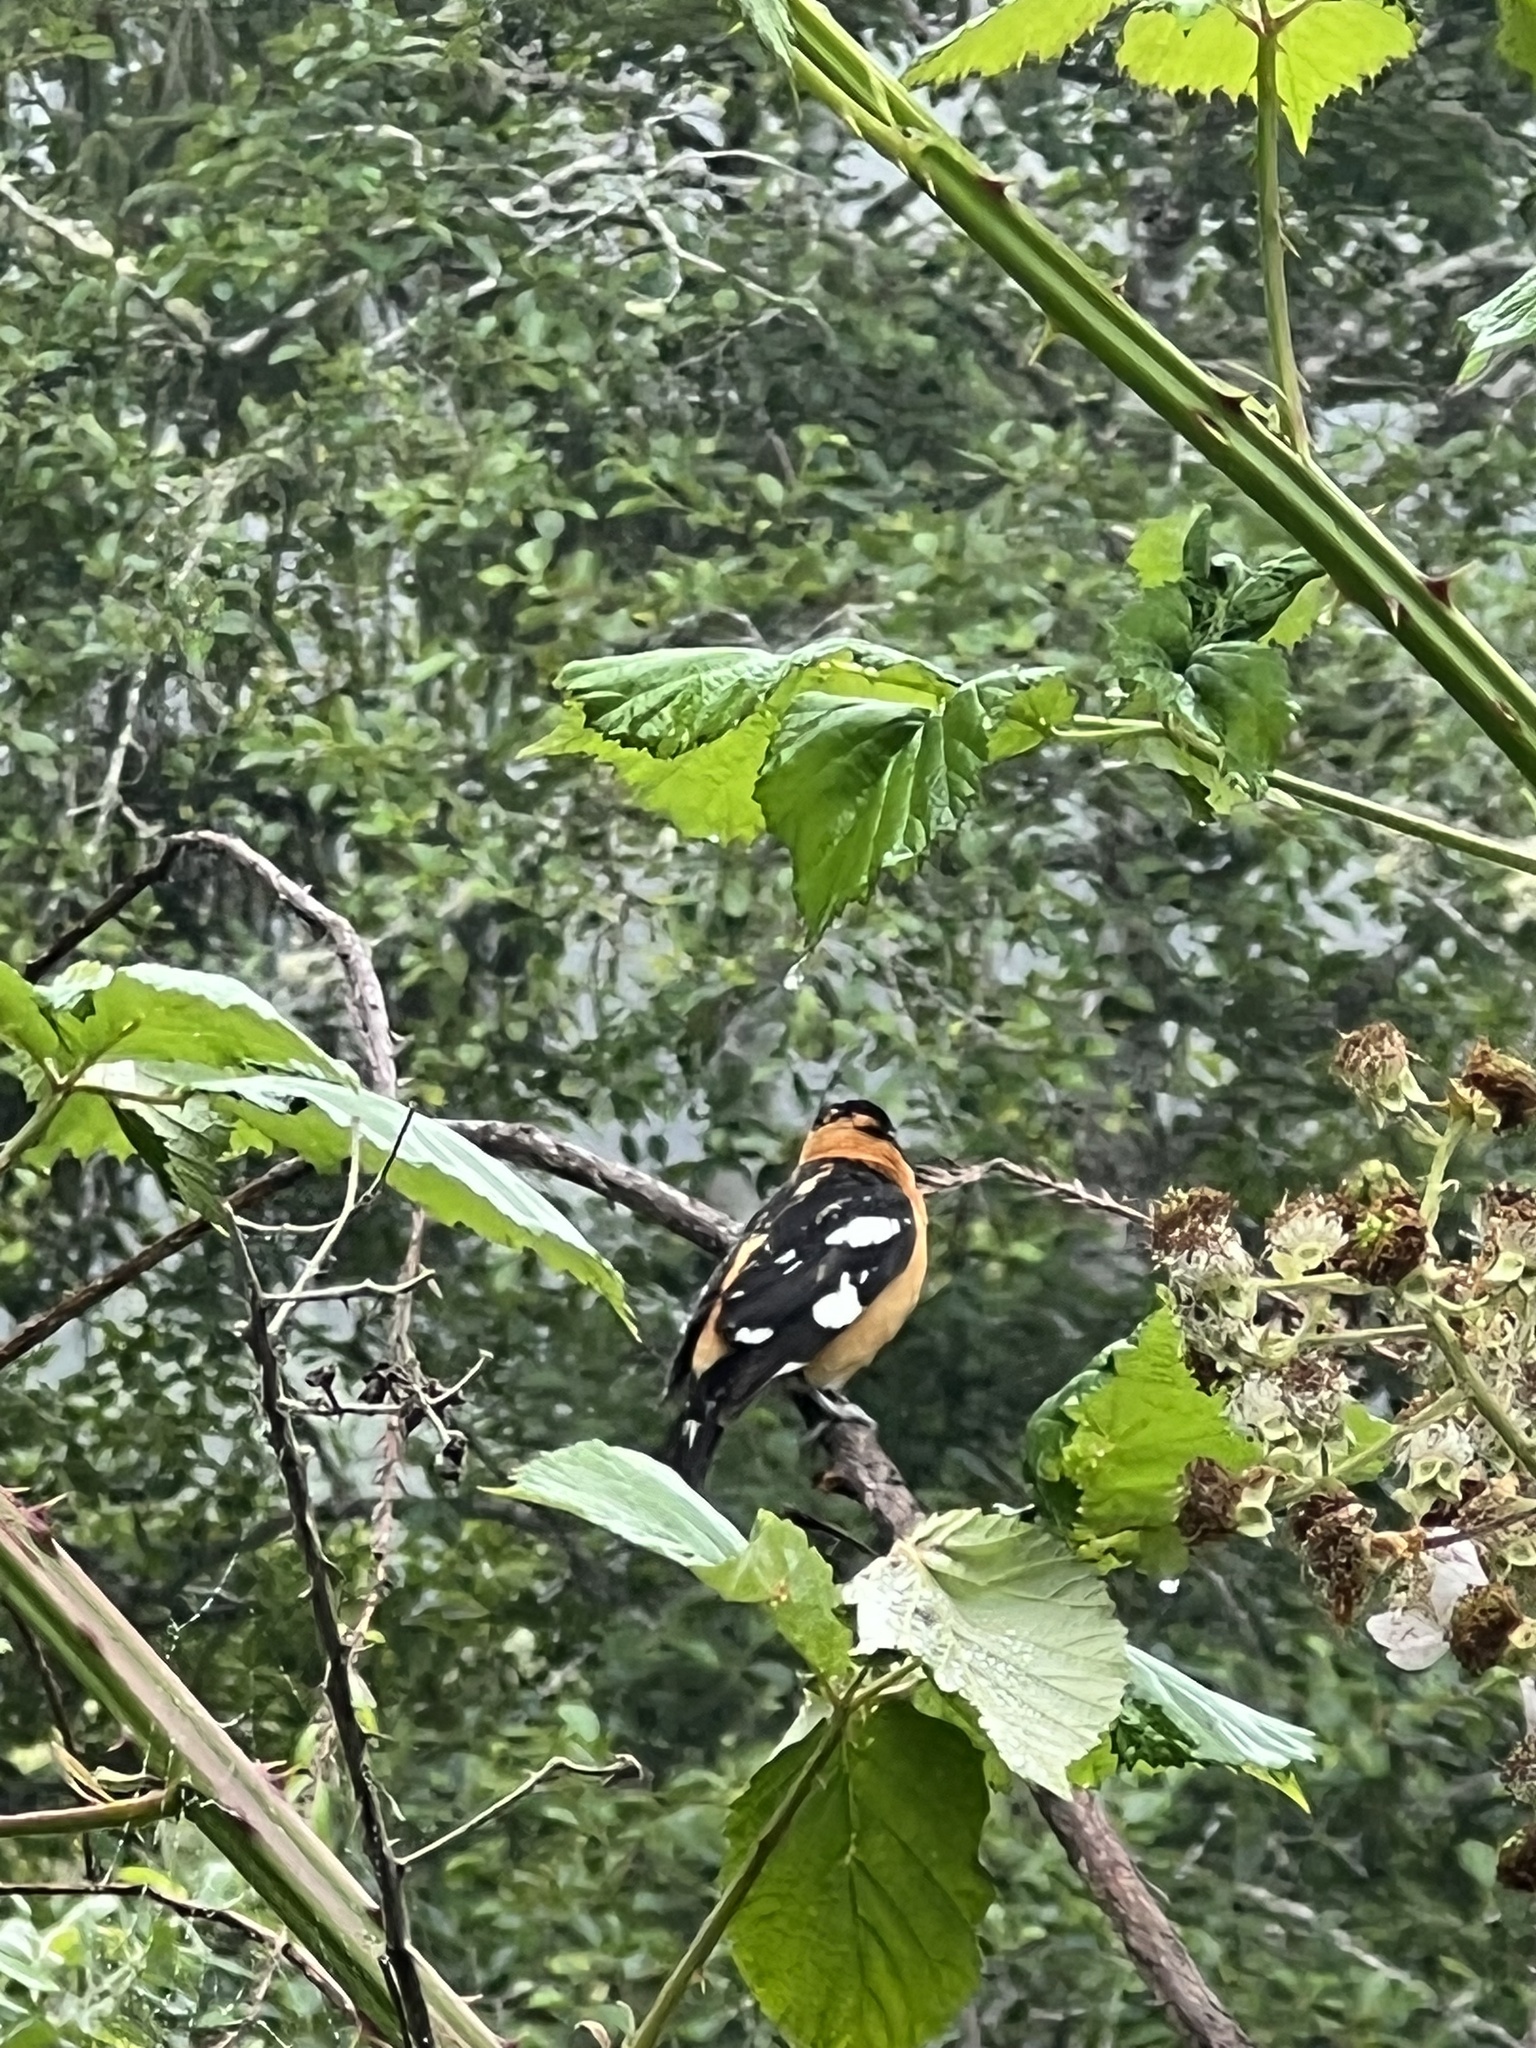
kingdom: Animalia
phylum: Chordata
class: Aves
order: Passeriformes
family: Cardinalidae
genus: Pheucticus
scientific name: Pheucticus melanocephalus
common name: Black-headed grosbeak
